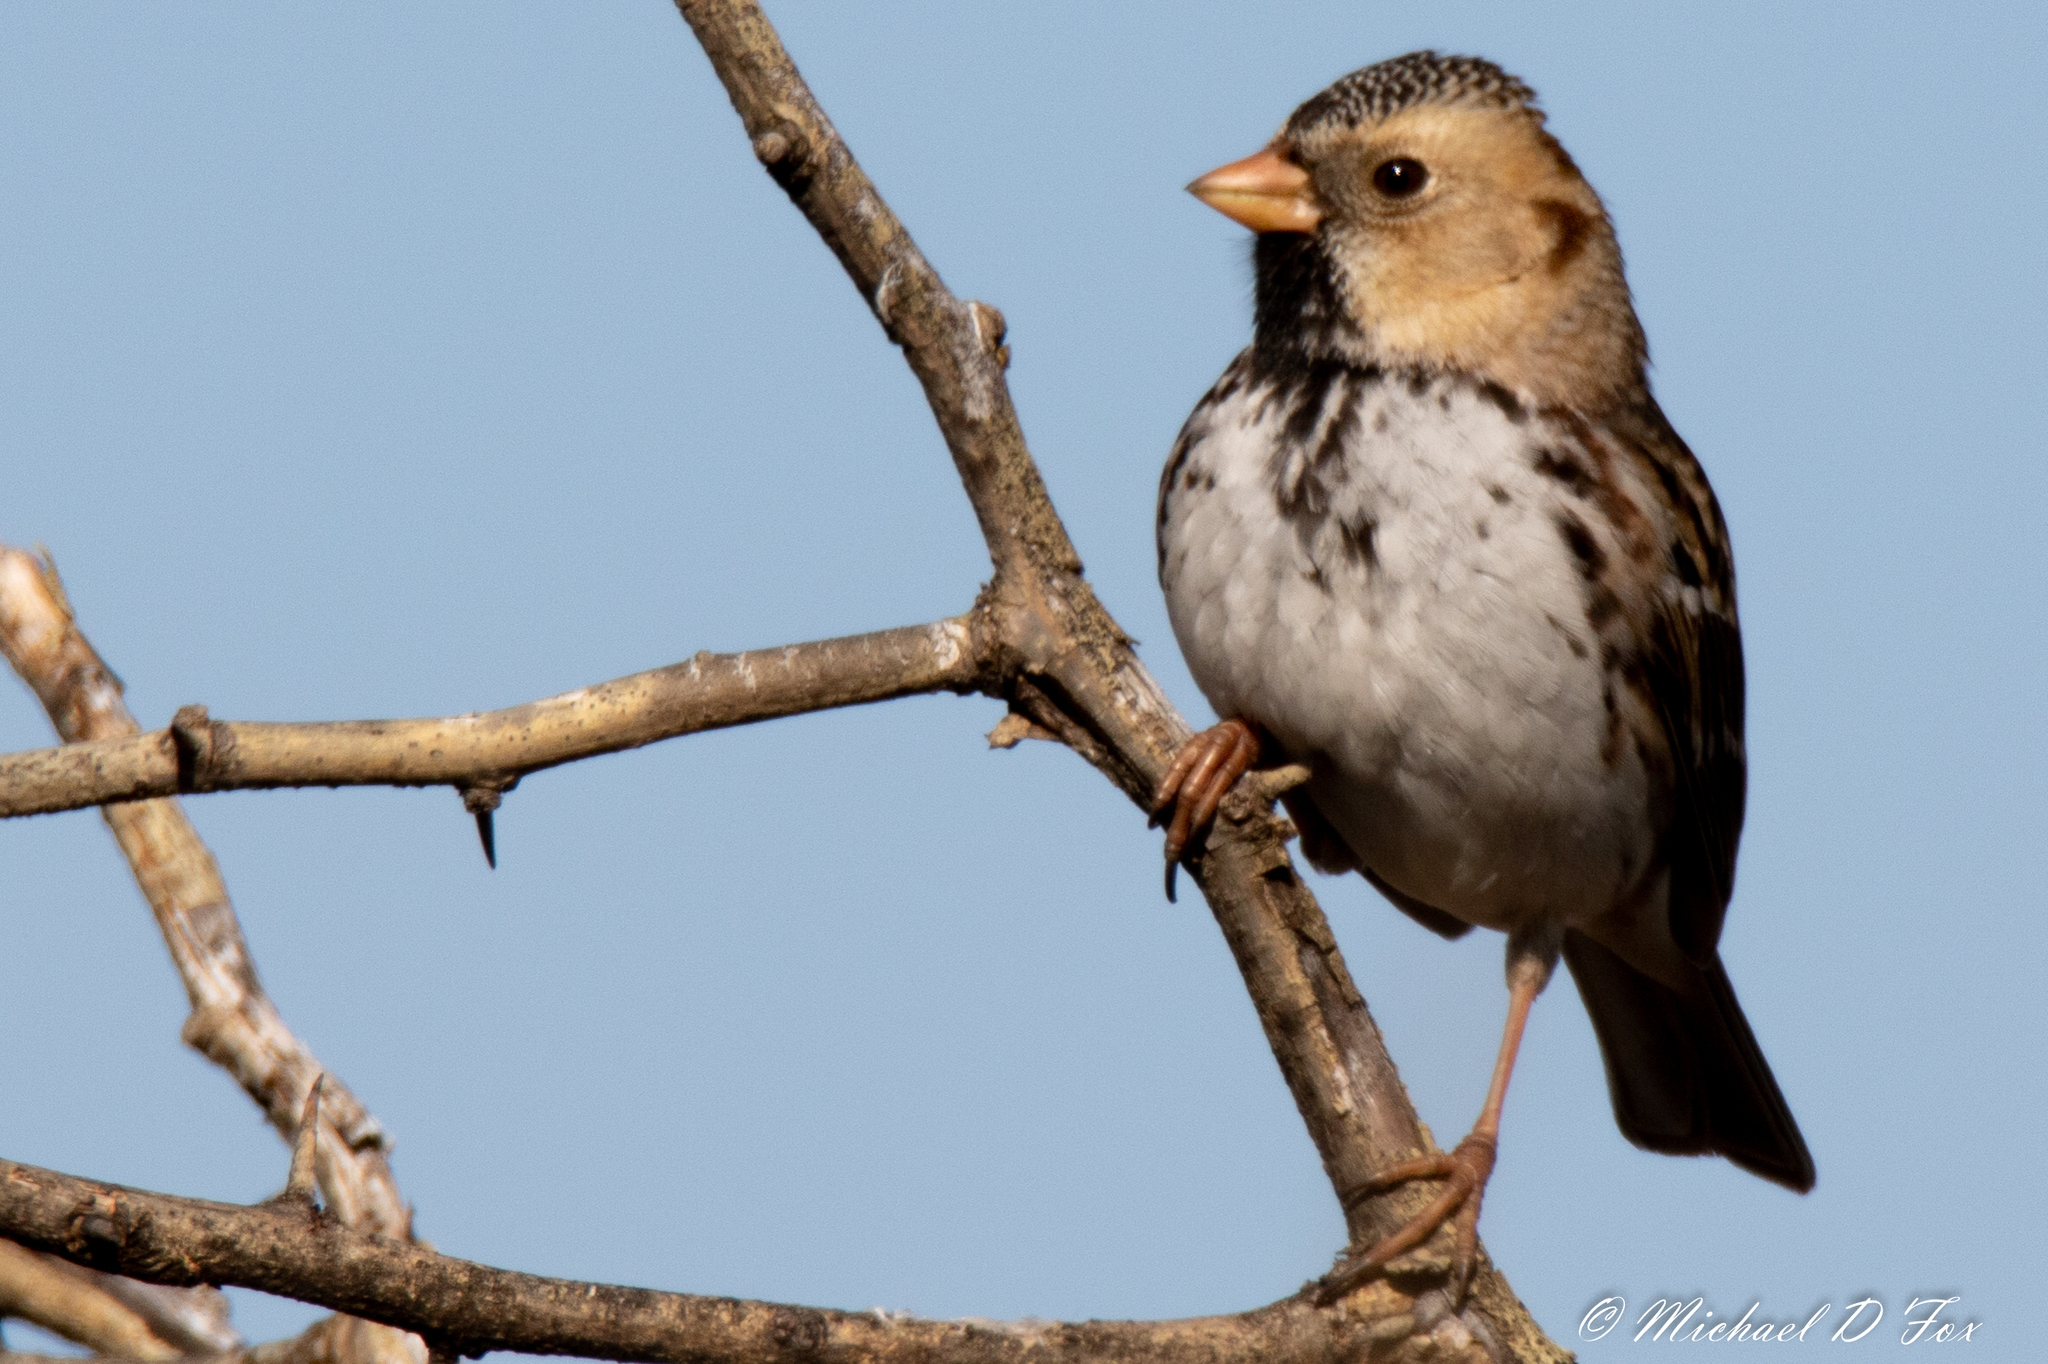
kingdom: Animalia
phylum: Chordata
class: Aves
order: Passeriformes
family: Passerellidae
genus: Zonotrichia
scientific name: Zonotrichia querula
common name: Harris's sparrow
